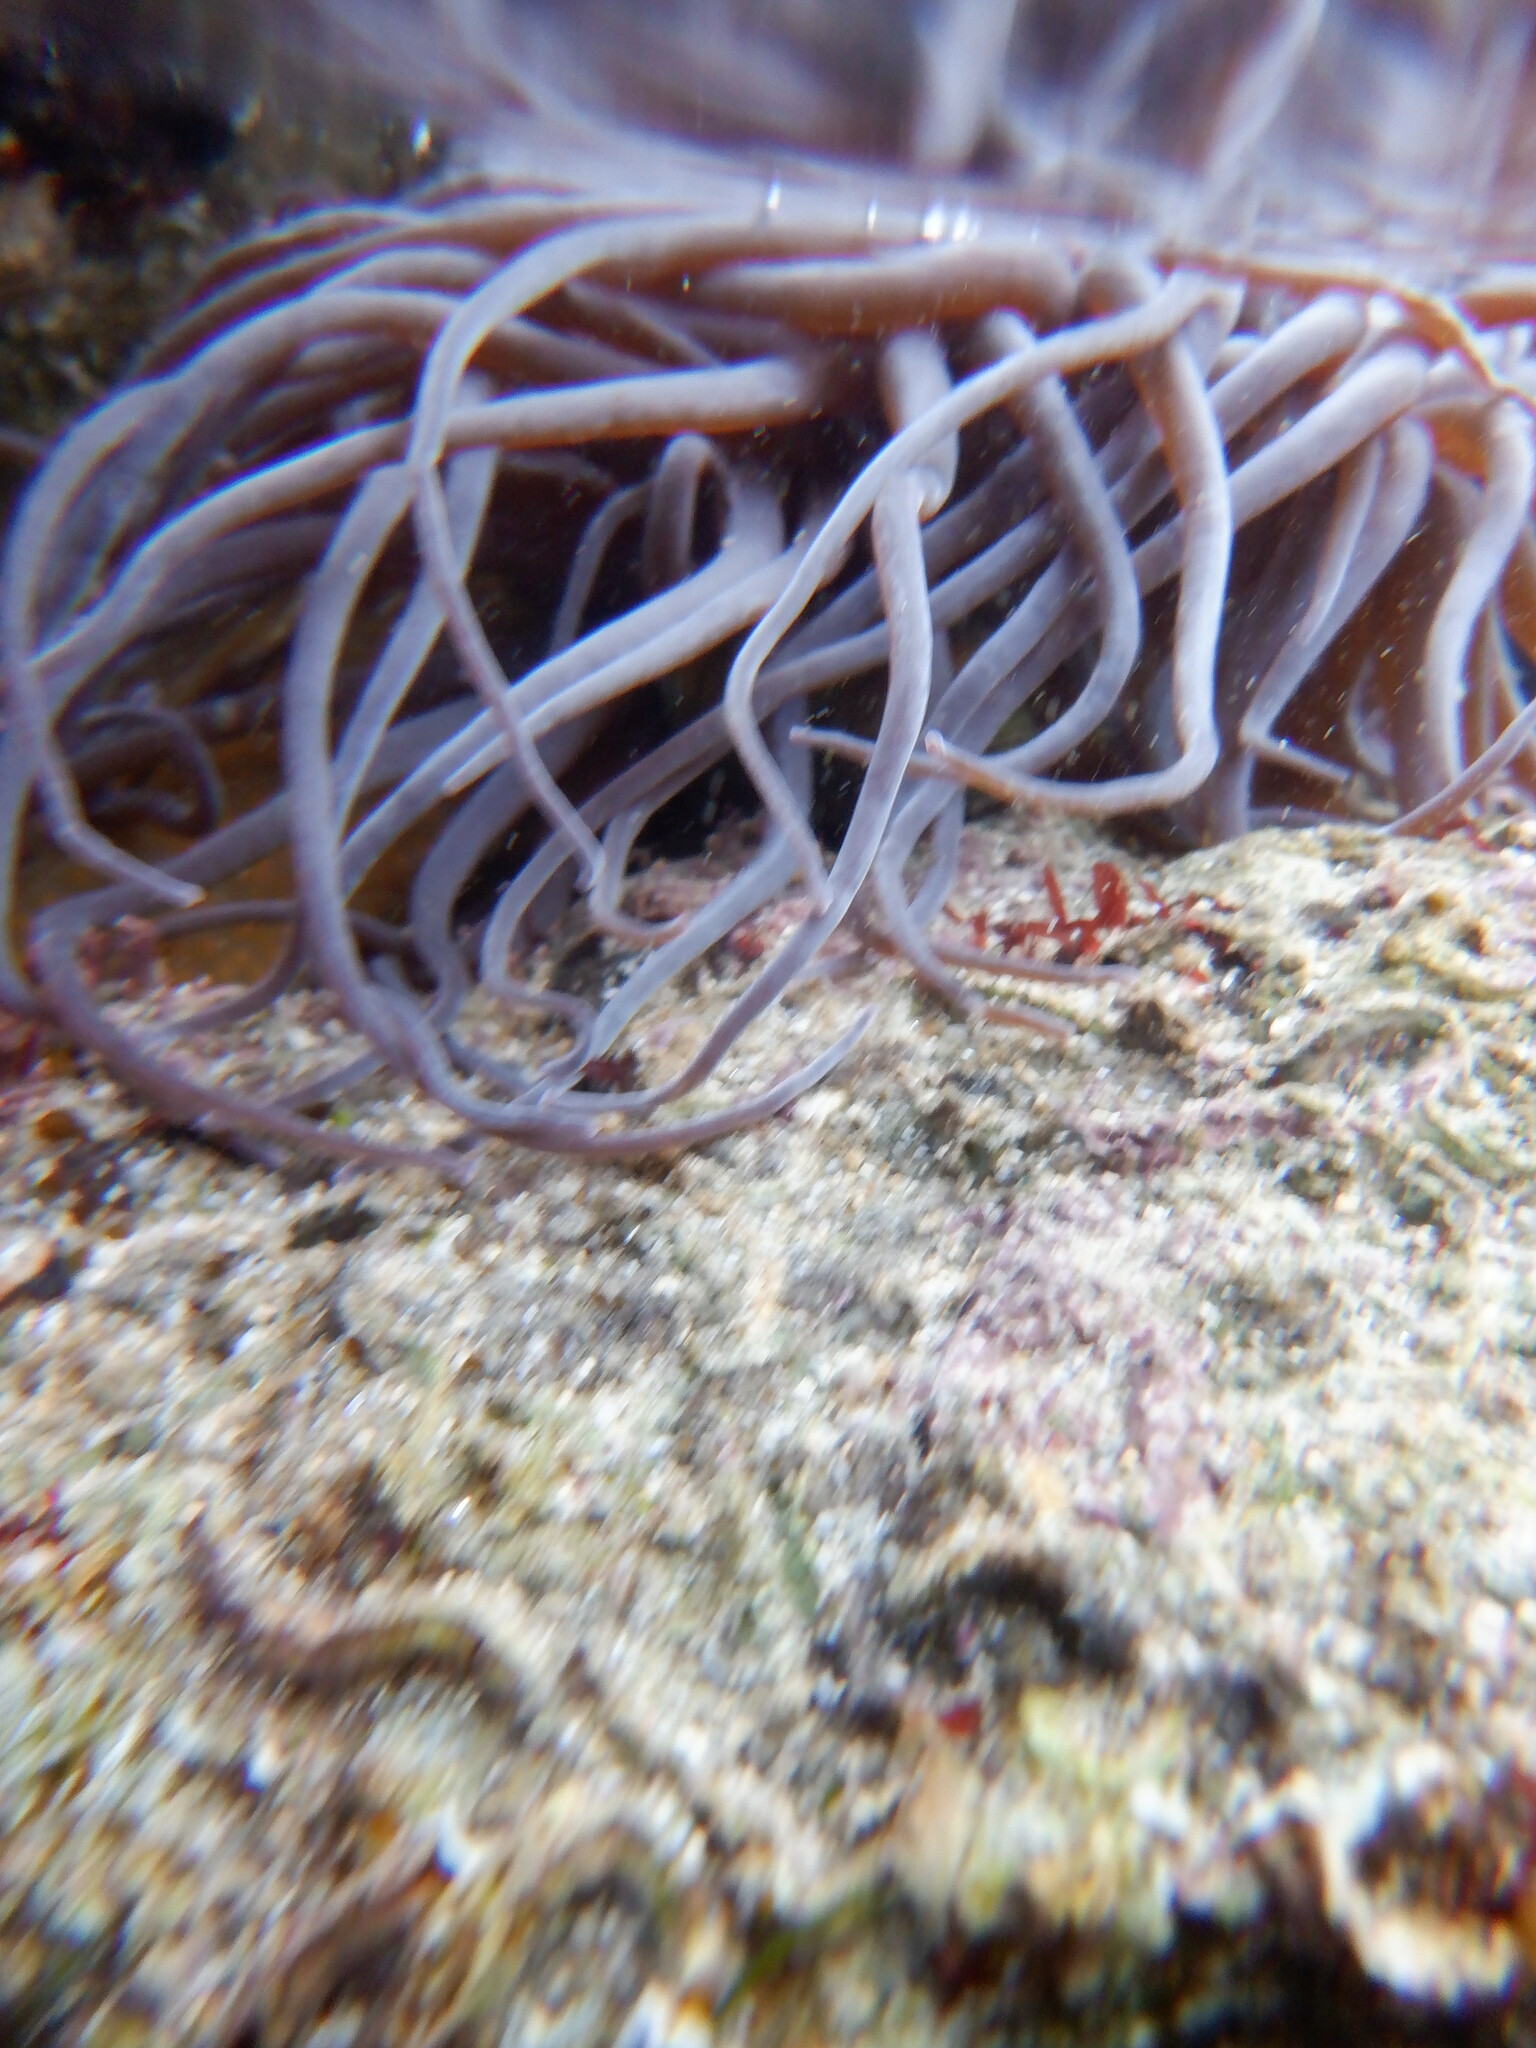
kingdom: Animalia
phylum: Cnidaria
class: Anthozoa
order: Actiniaria
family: Actiniidae
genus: Anemonia
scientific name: Anemonia viridis
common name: Snakelocks anemone
